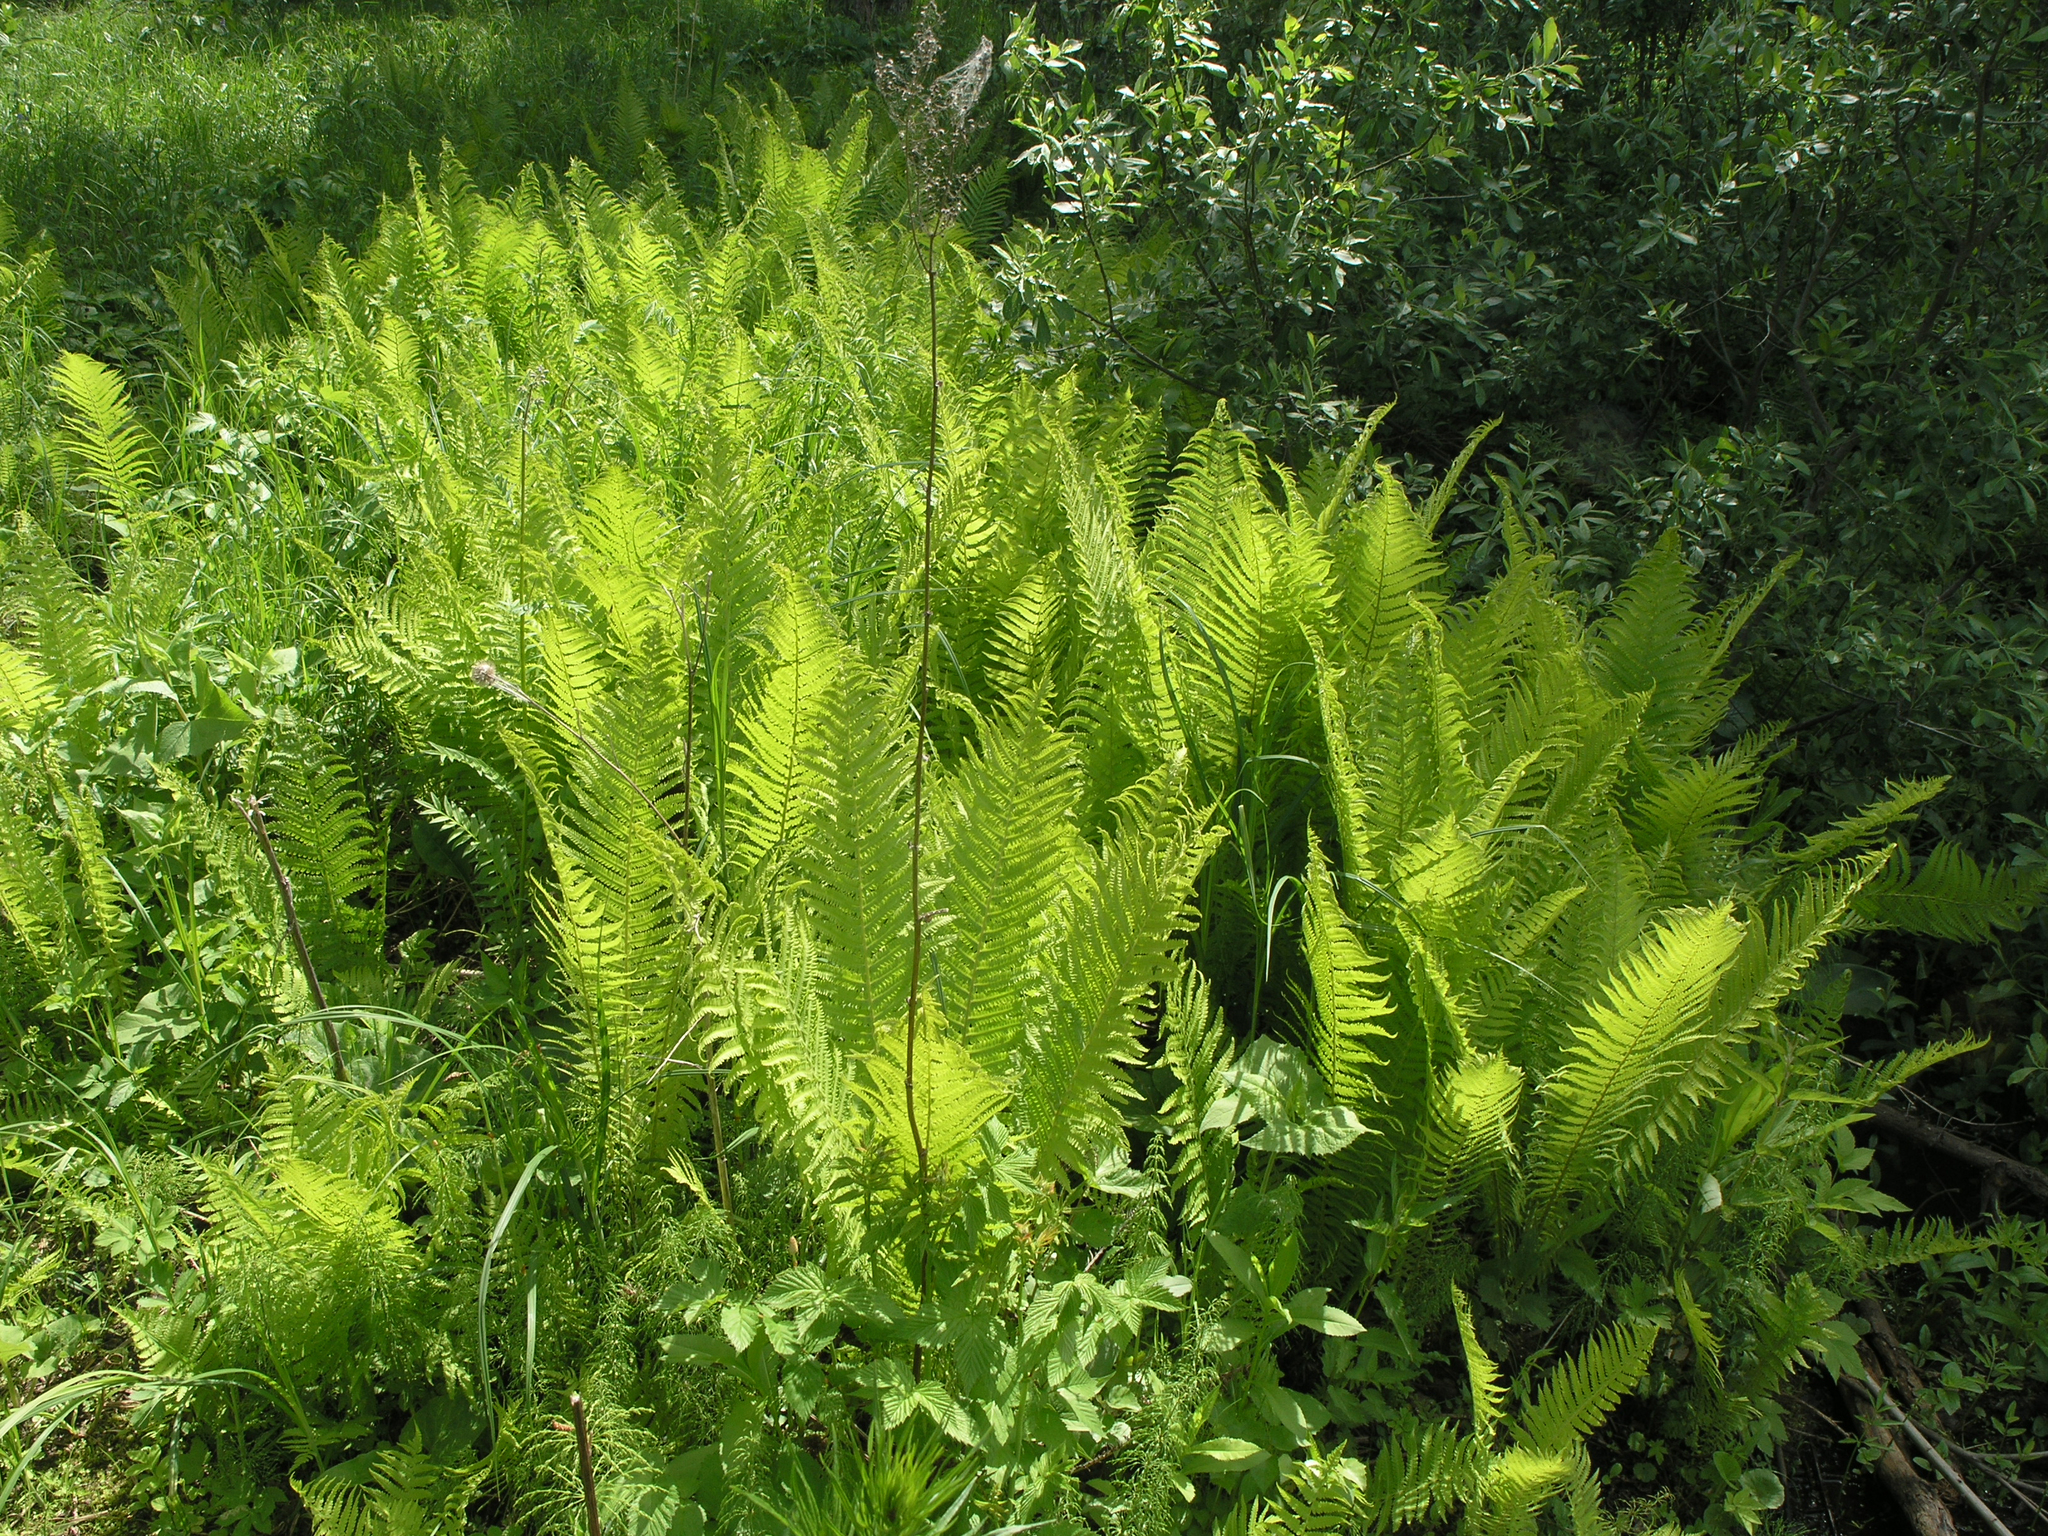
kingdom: Plantae
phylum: Tracheophyta
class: Polypodiopsida
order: Polypodiales
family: Onocleaceae
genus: Matteuccia
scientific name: Matteuccia struthiopteris
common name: Ostrich fern
